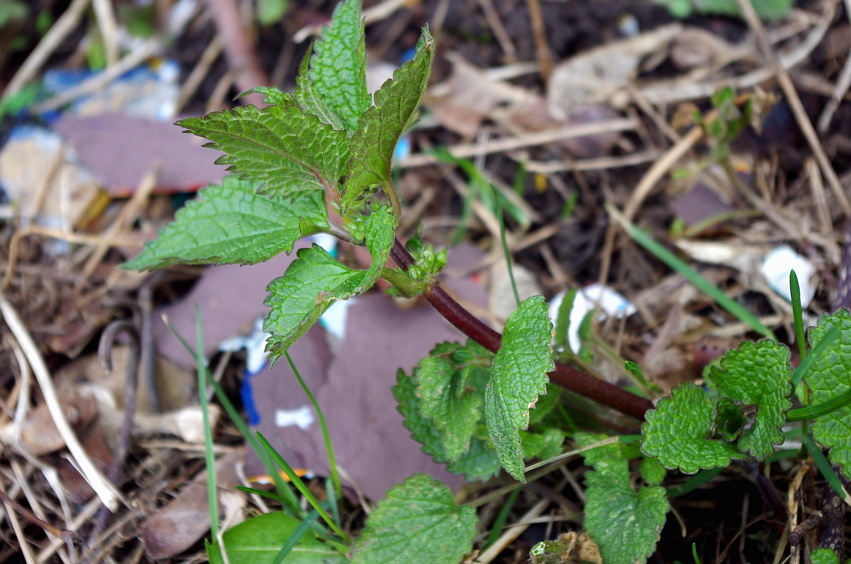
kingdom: Plantae
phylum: Tracheophyta
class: Magnoliopsida
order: Lamiales
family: Lamiaceae
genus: Lamium
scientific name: Lamium album
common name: White dead-nettle
